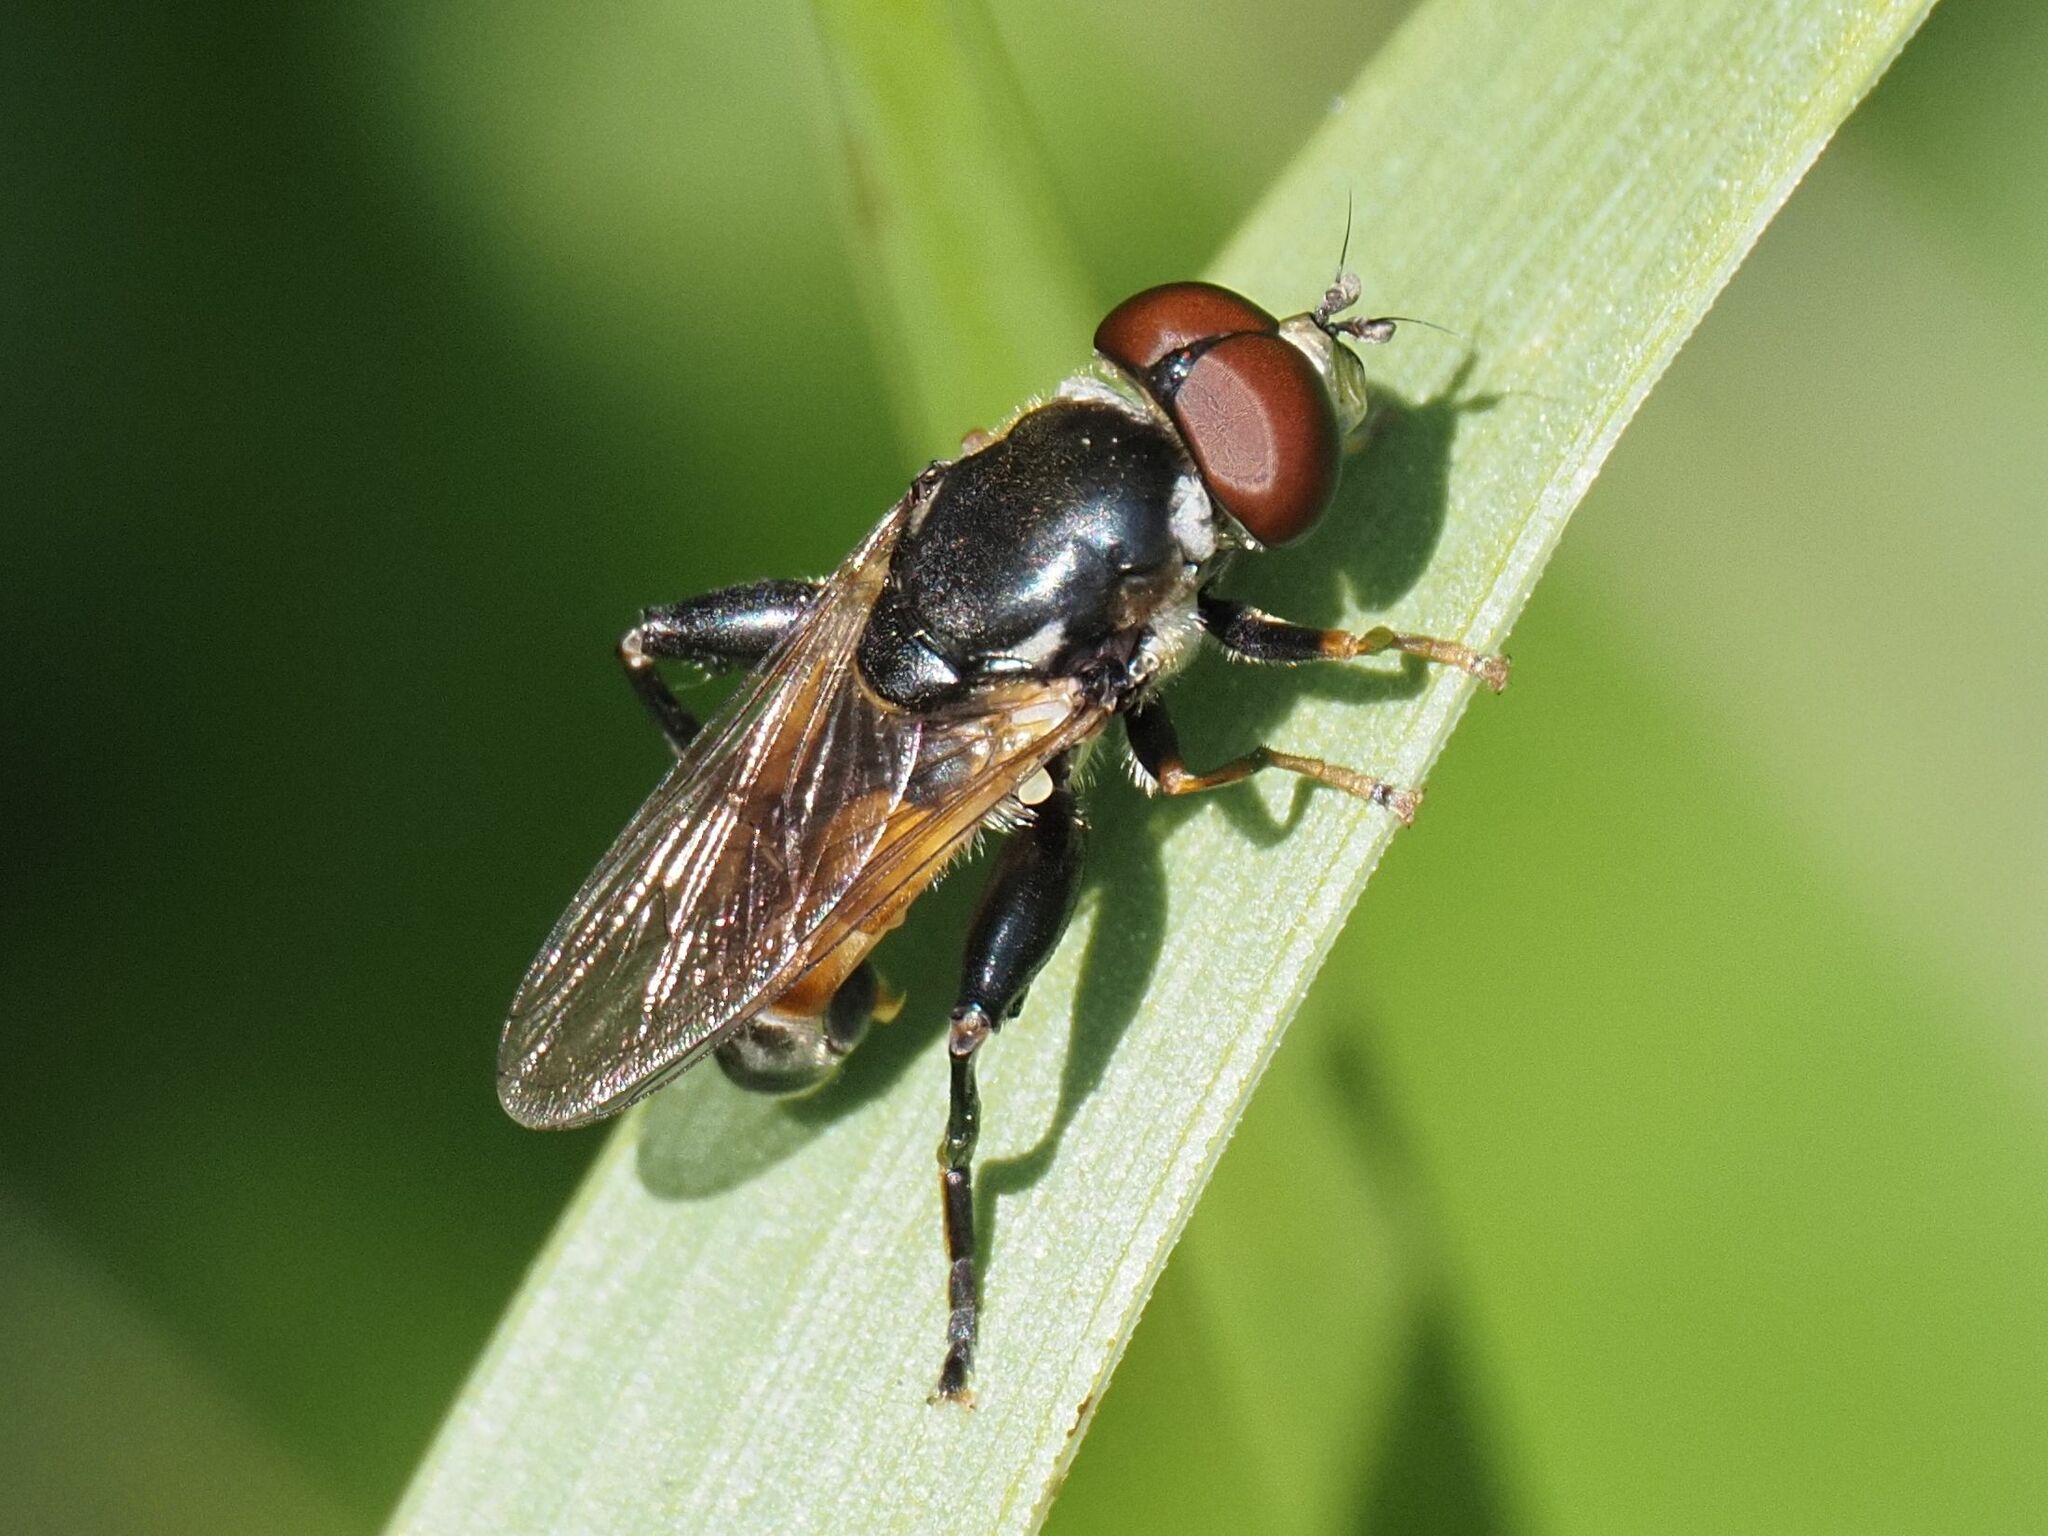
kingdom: Animalia
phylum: Arthropoda
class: Insecta
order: Diptera
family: Syrphidae
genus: Tropidia
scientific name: Tropidia scita
